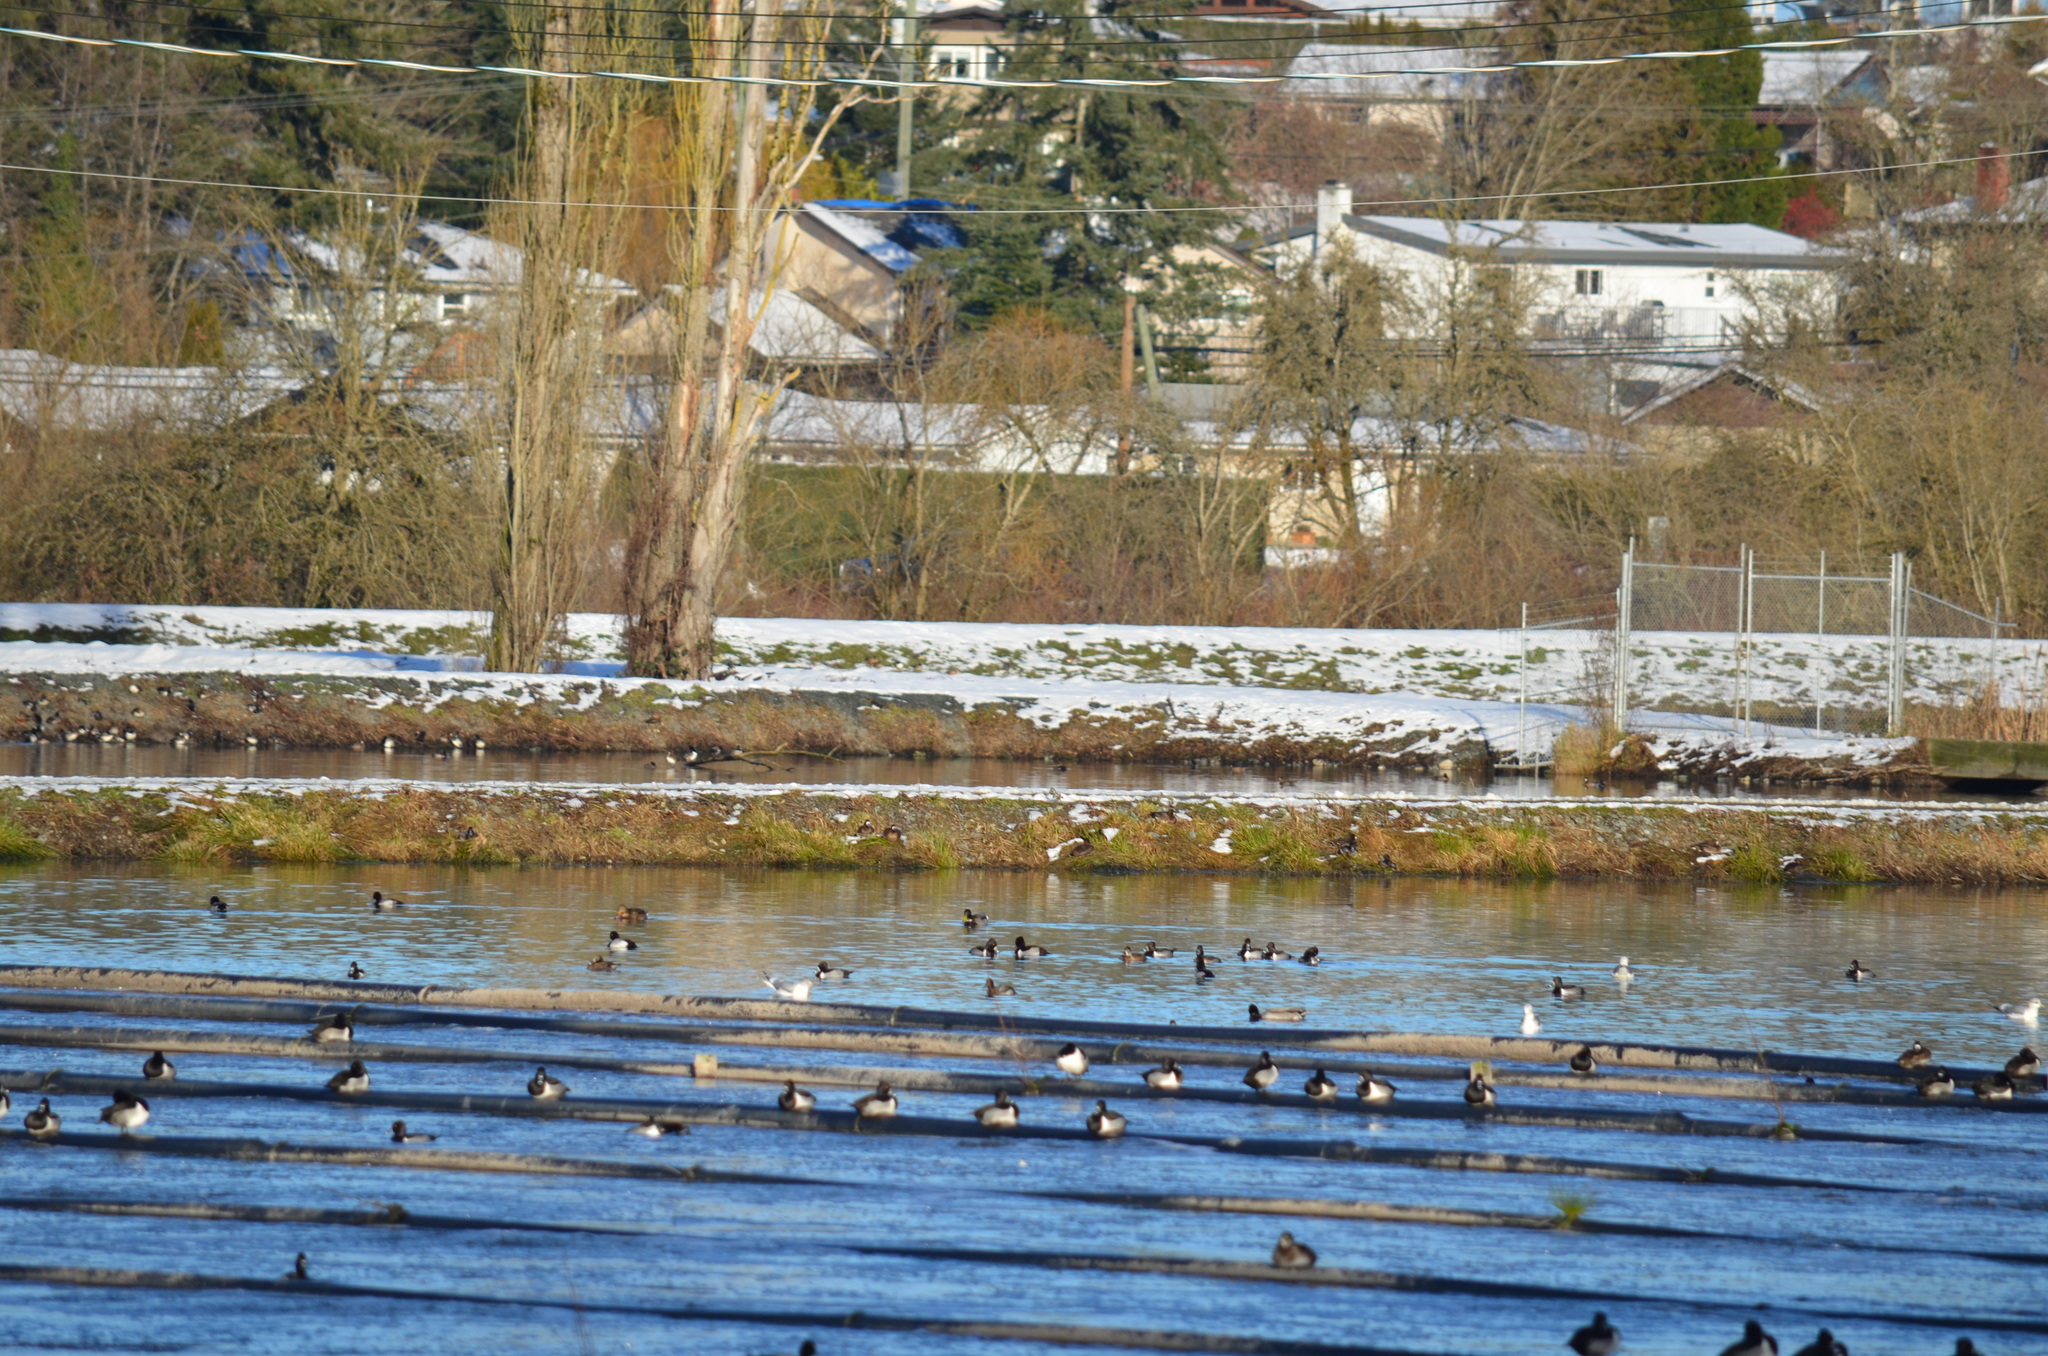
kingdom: Animalia
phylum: Chordata
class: Aves
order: Anseriformes
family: Anatidae
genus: Aythya
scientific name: Aythya collaris
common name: Ring-necked duck
